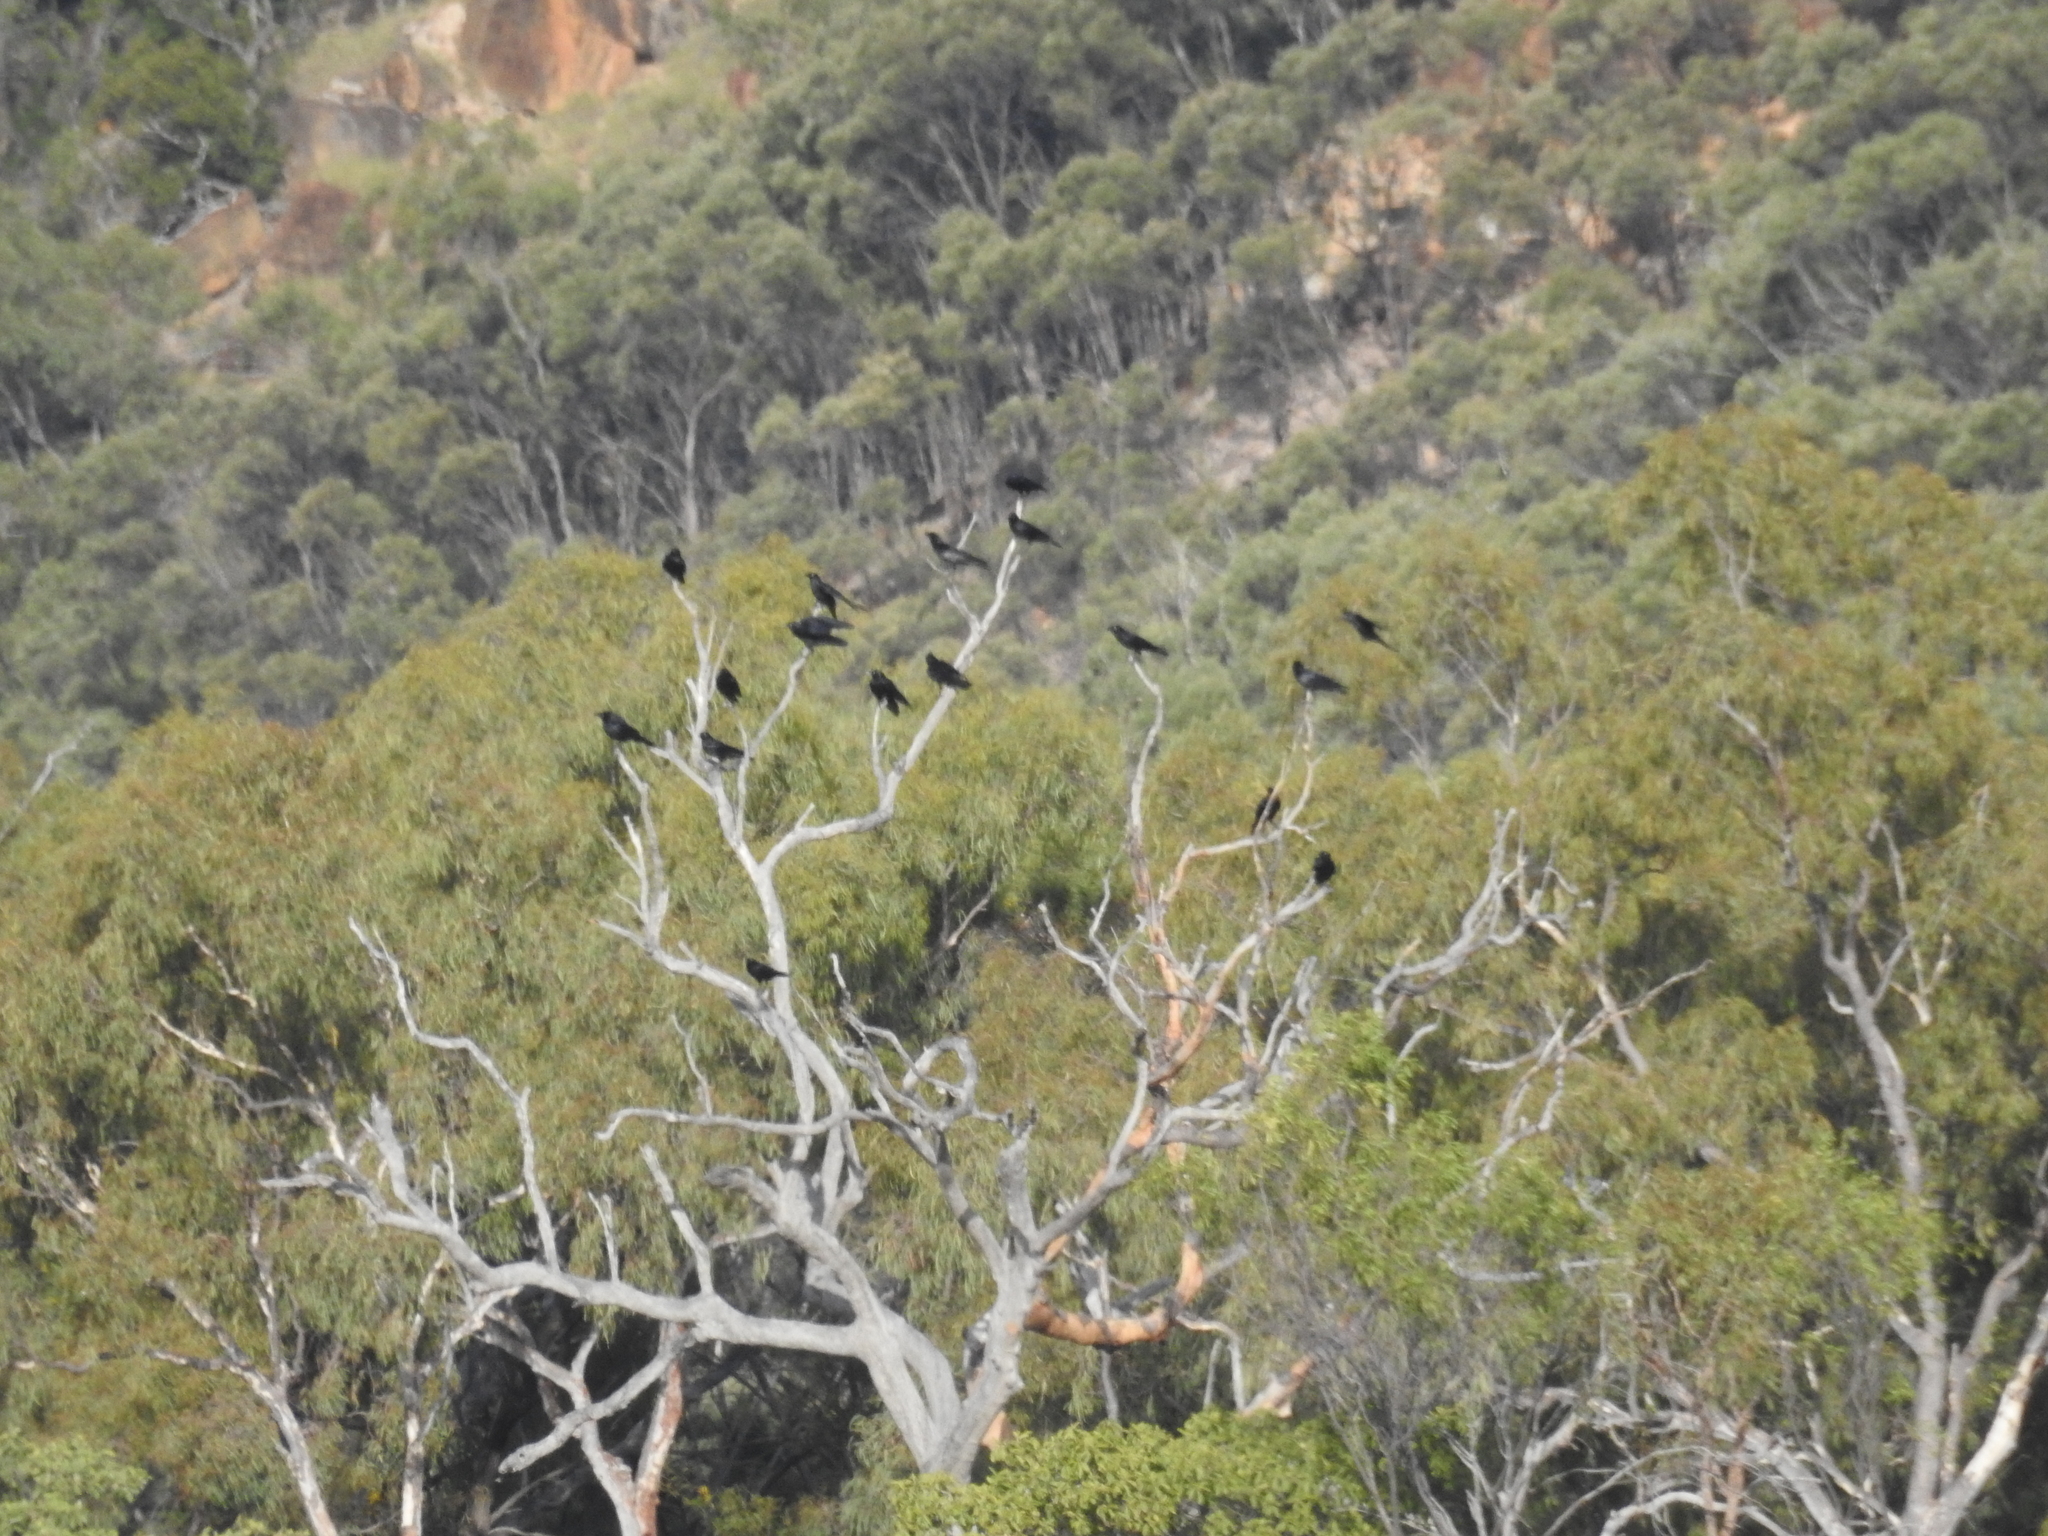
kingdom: Animalia
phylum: Chordata
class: Aves
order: Passeriformes
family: Corvidae
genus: Corvus
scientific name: Corvus orru
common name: Torresian crow
